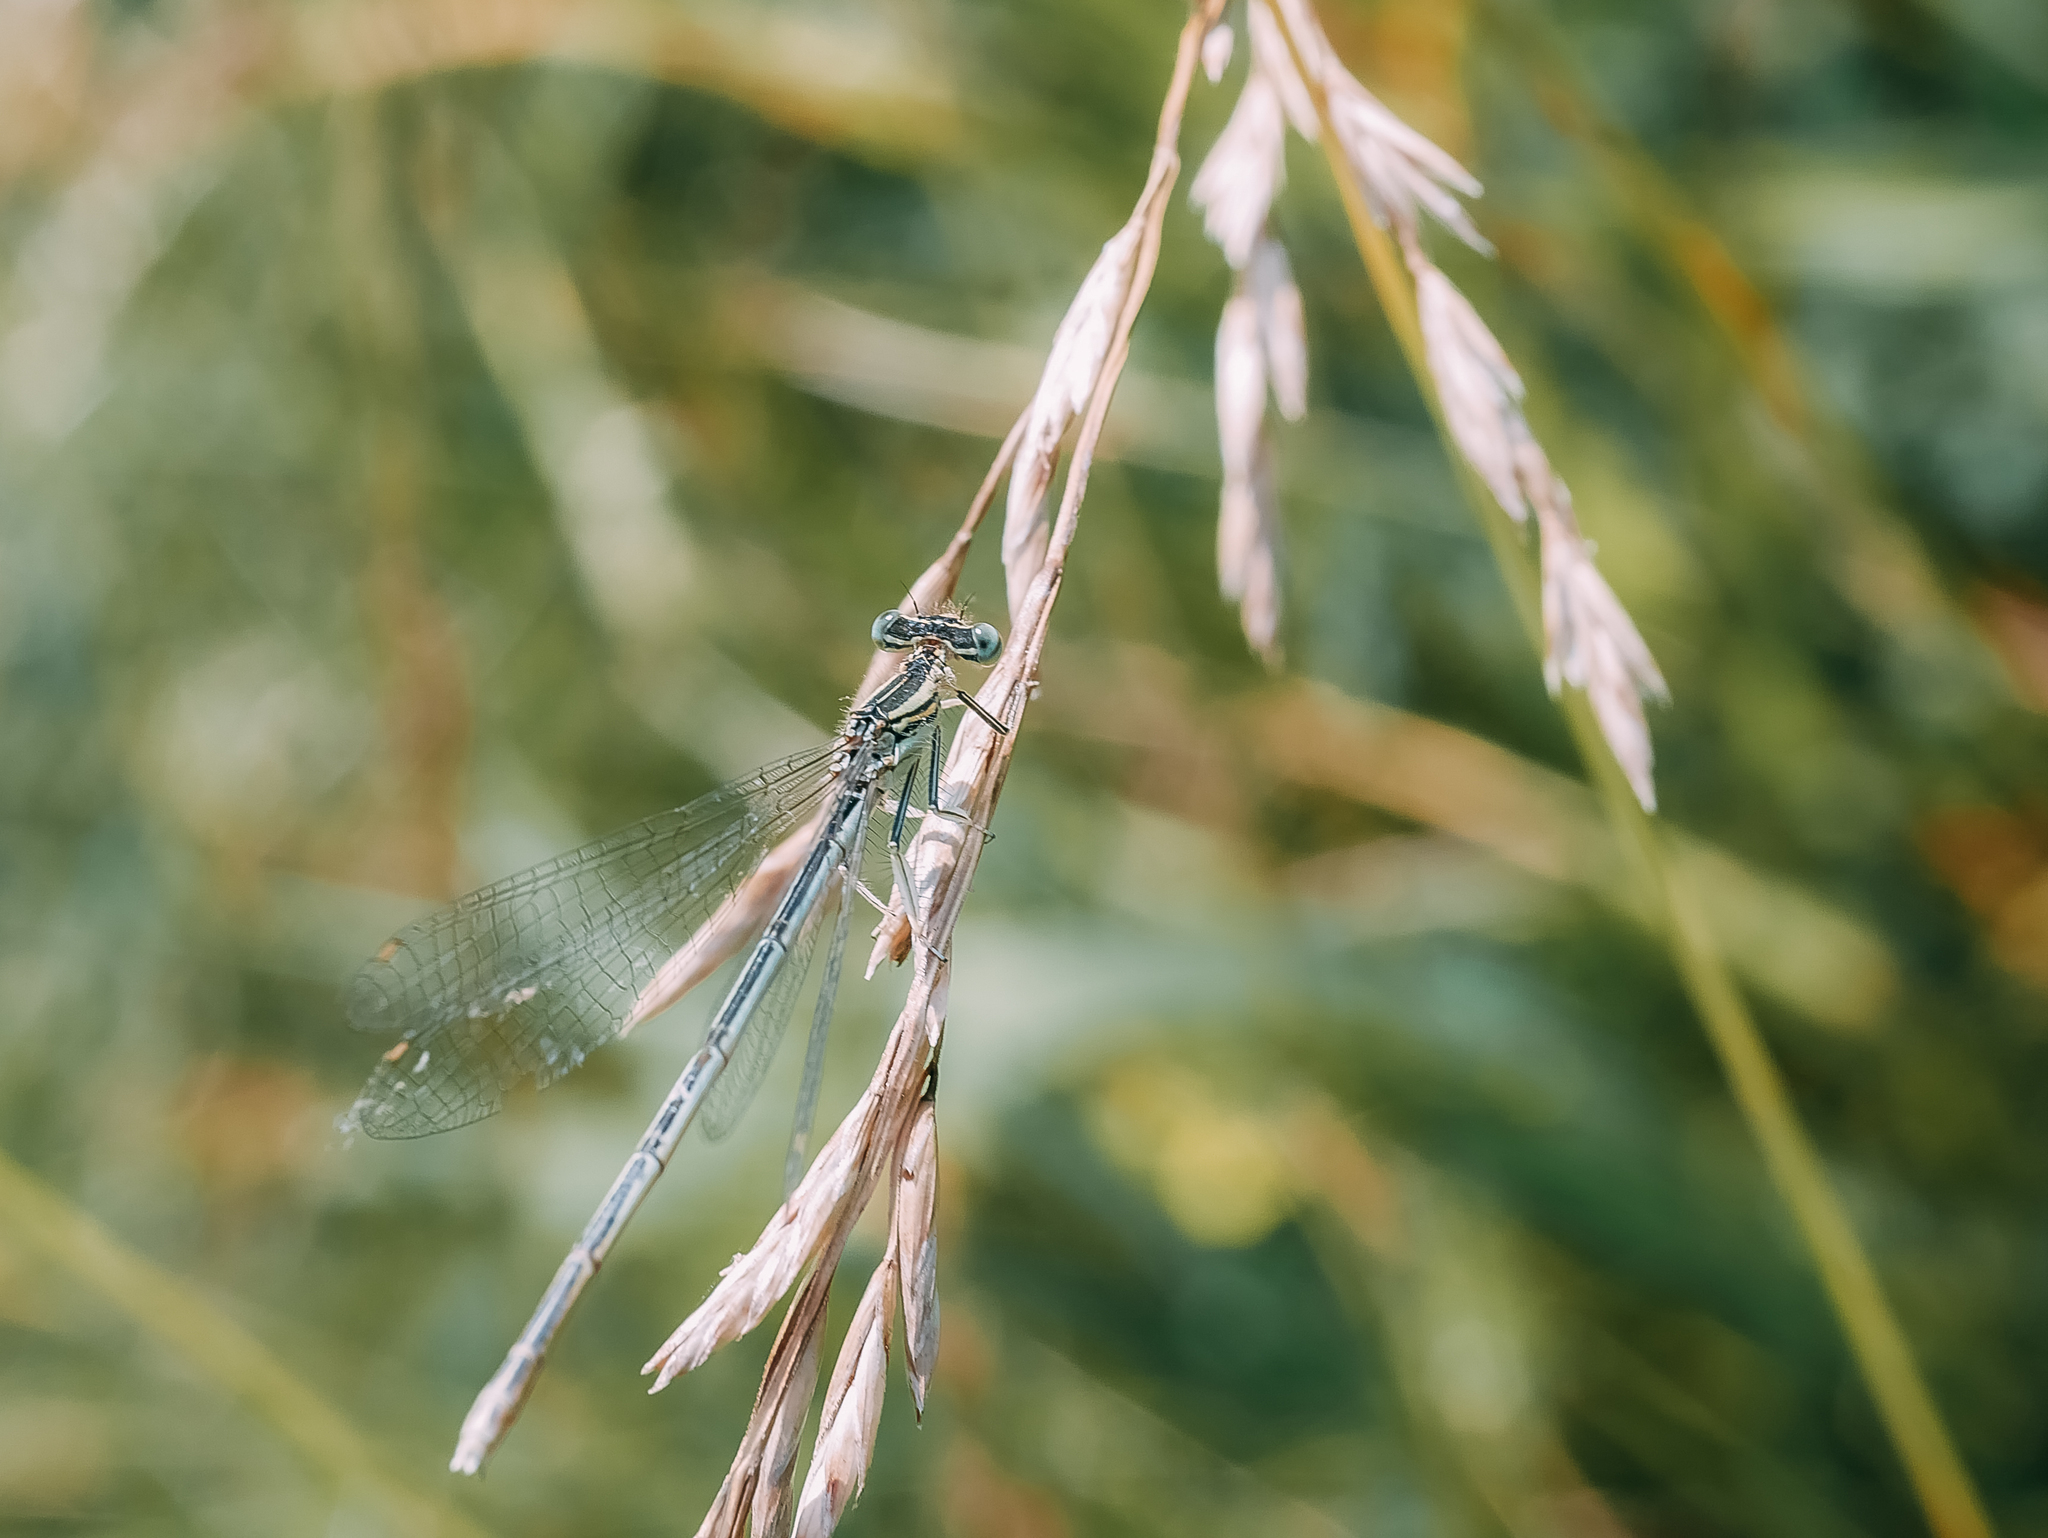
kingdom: Animalia
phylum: Arthropoda
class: Insecta
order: Odonata
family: Platycnemididae
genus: Platycnemis
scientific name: Platycnemis pennipes
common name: White-legged damselfly
